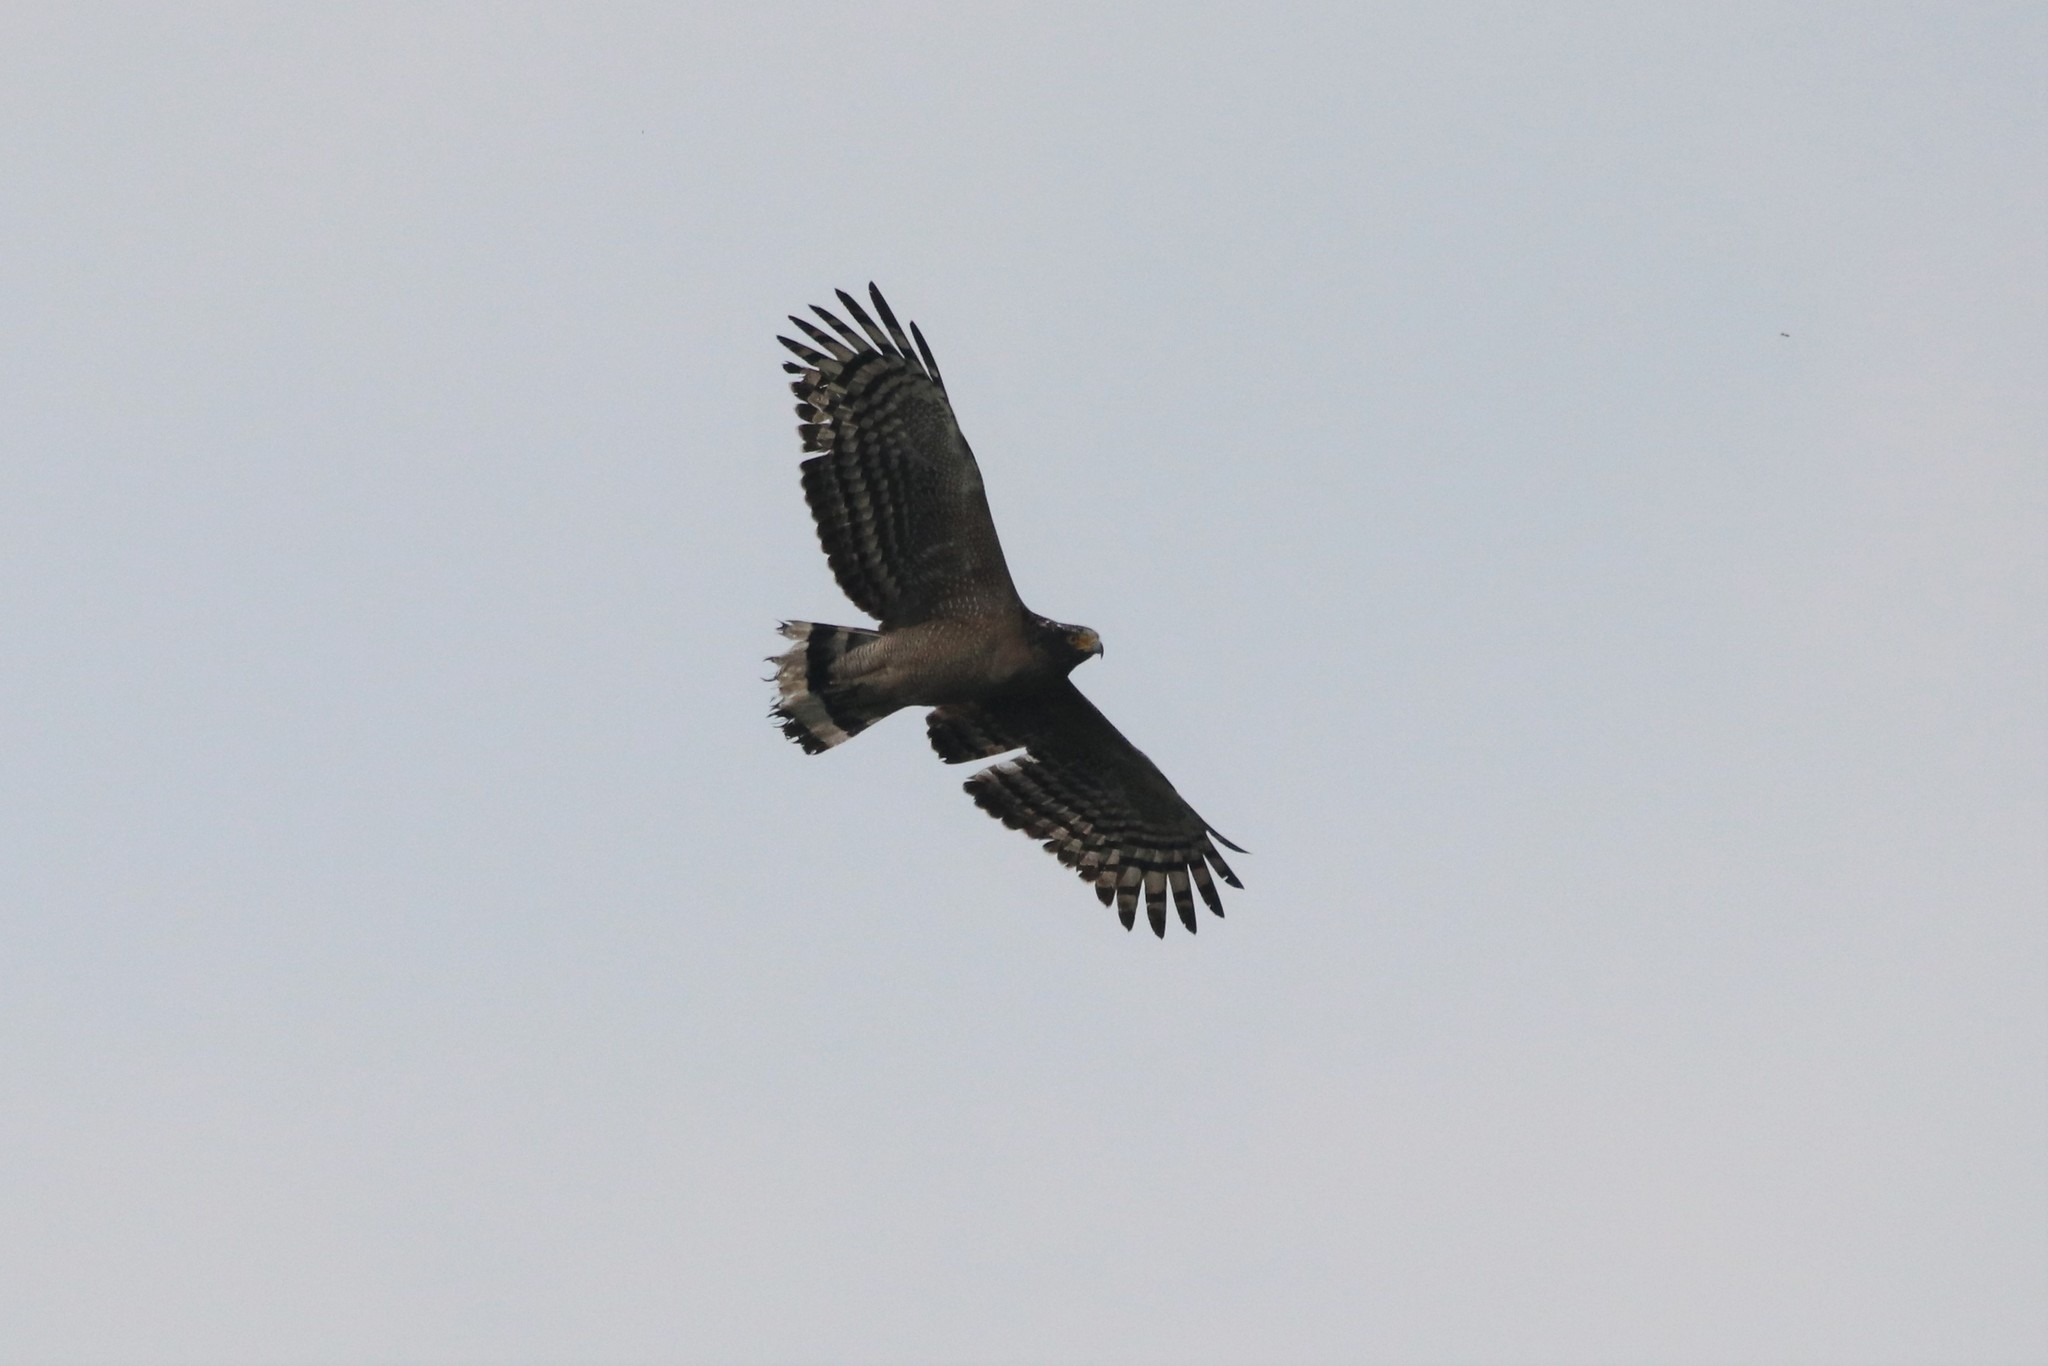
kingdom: Animalia
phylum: Chordata
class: Aves
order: Accipitriformes
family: Accipitridae
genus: Spilornis
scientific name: Spilornis cheela
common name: Crested serpent eagle
